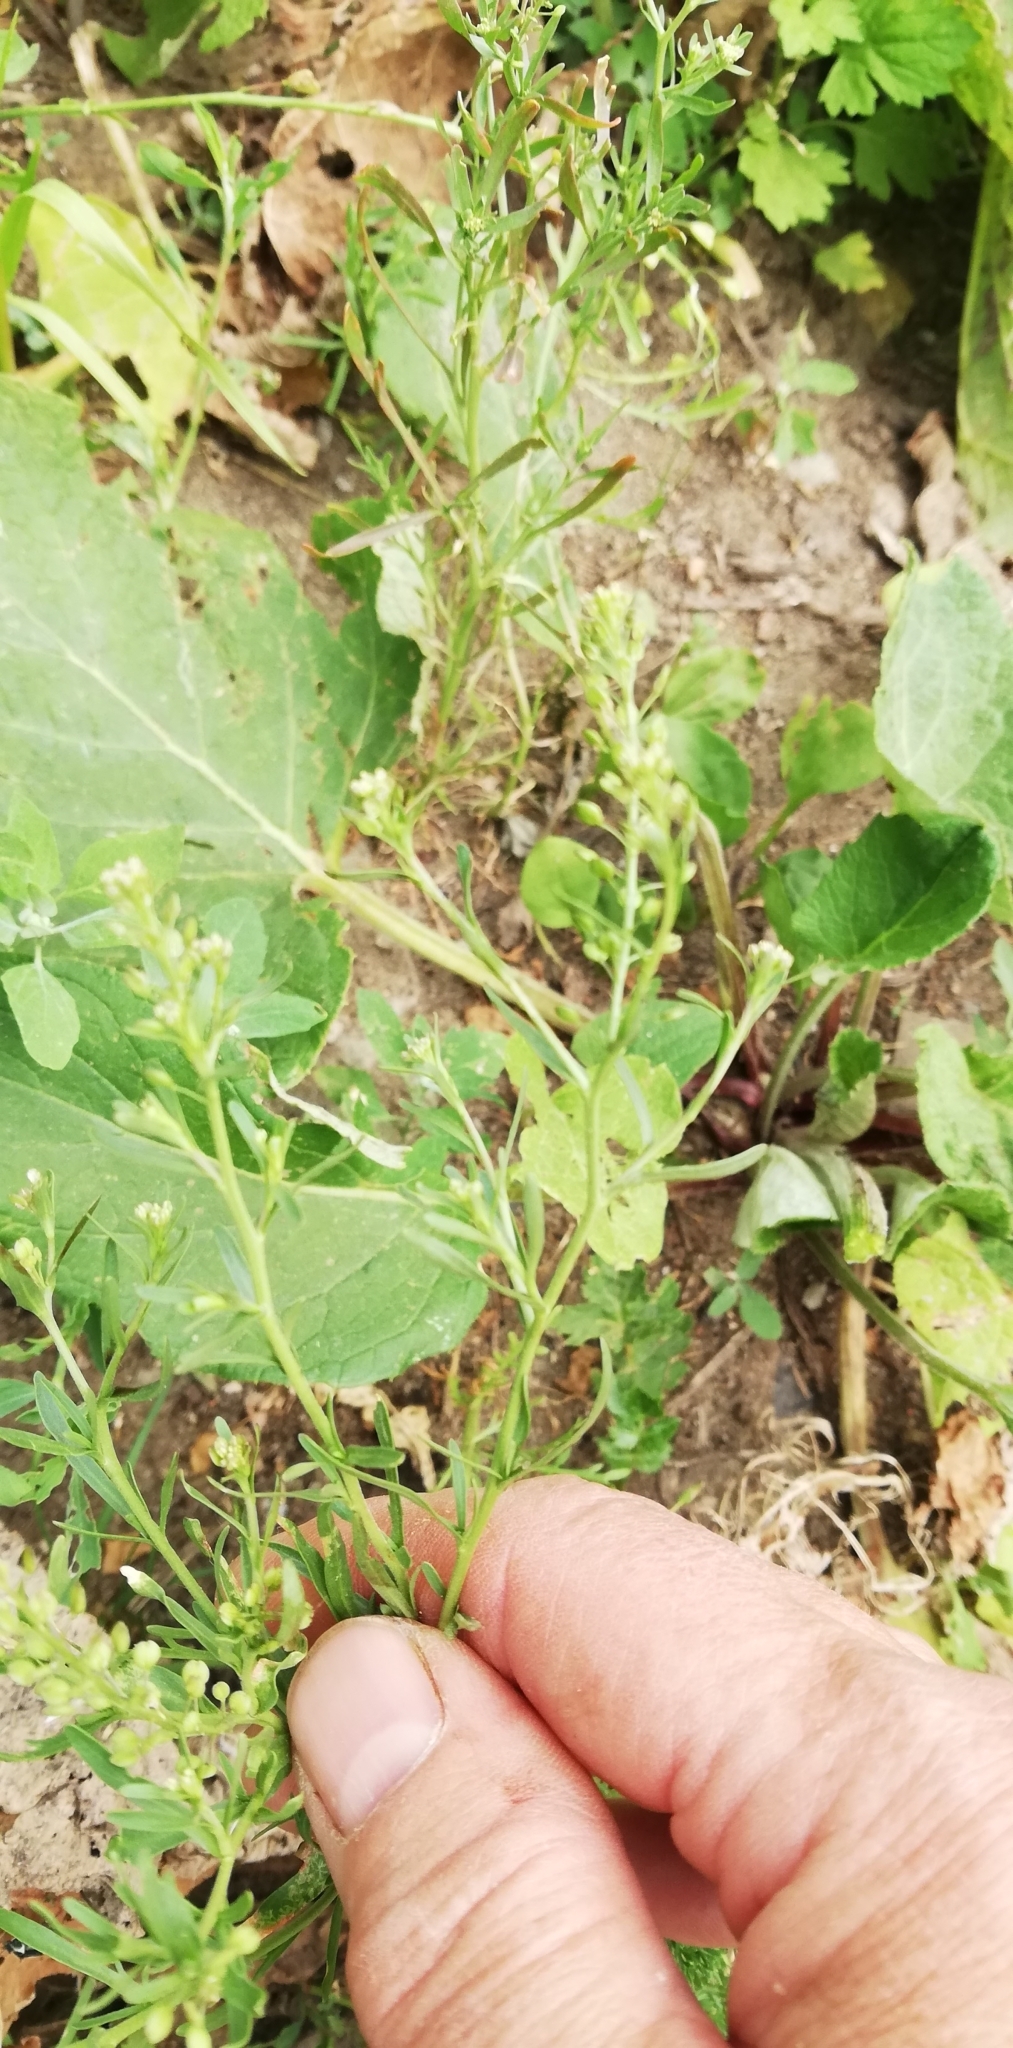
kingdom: Plantae
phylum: Tracheophyta
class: Magnoliopsida
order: Brassicales
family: Brassicaceae
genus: Lepidium
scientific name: Lepidium ruderale
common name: Narrow-leaved pepperwort
